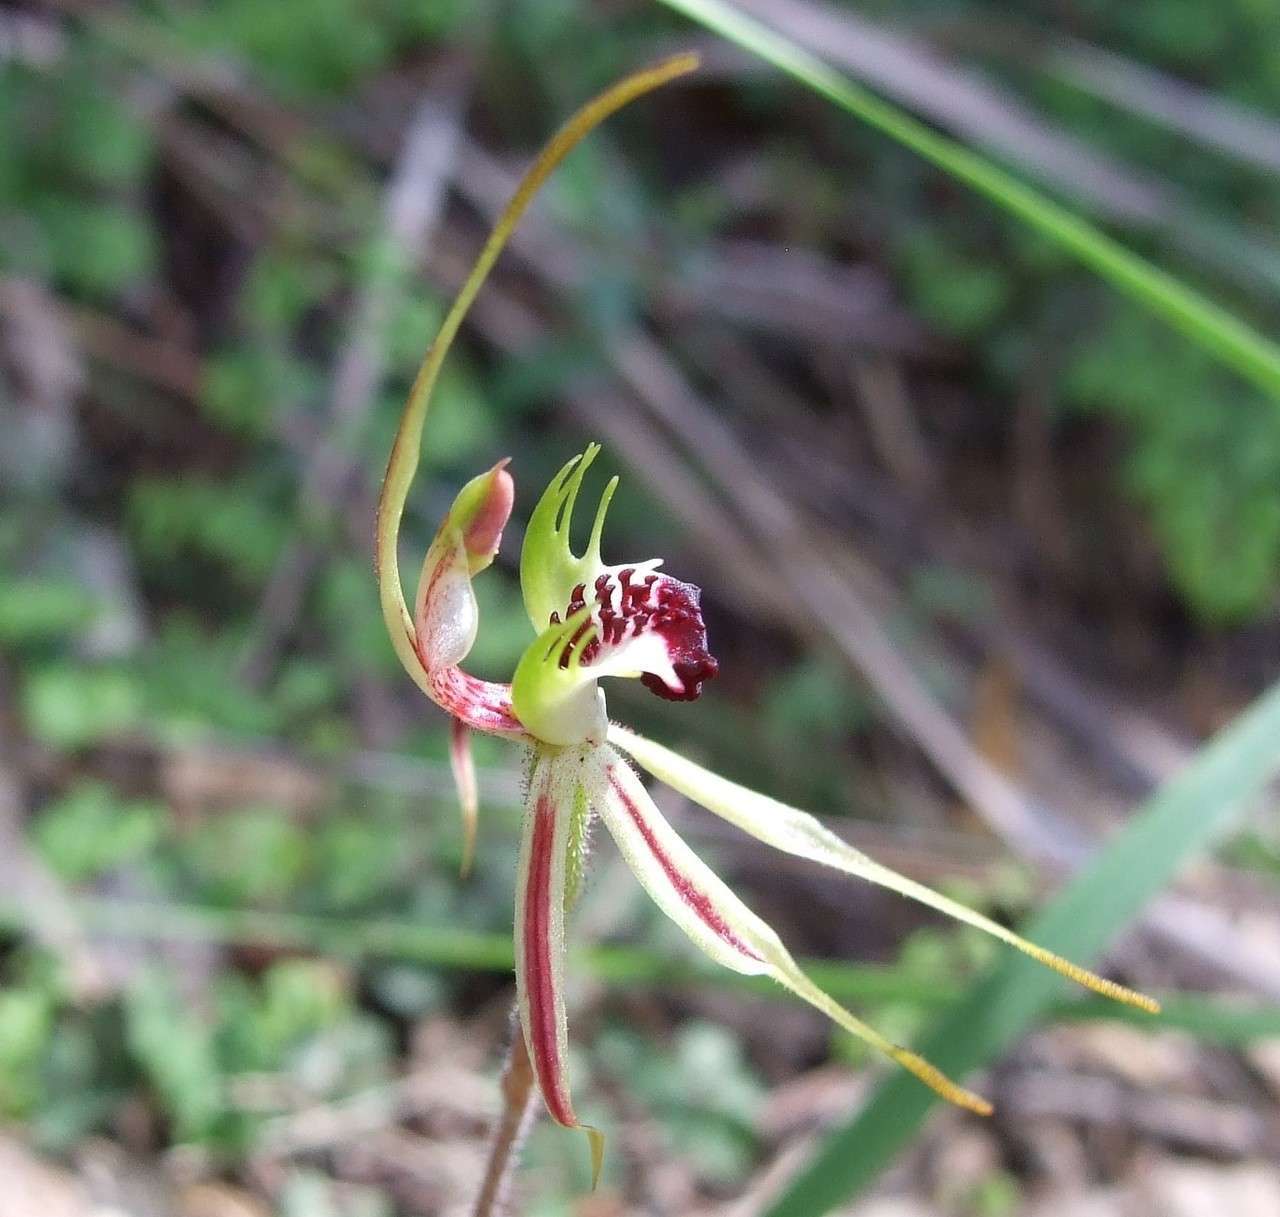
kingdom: Plantae
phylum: Tracheophyta
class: Liliopsida
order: Asparagales
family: Orchidaceae
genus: Caladenia
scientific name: Caladenia parva
